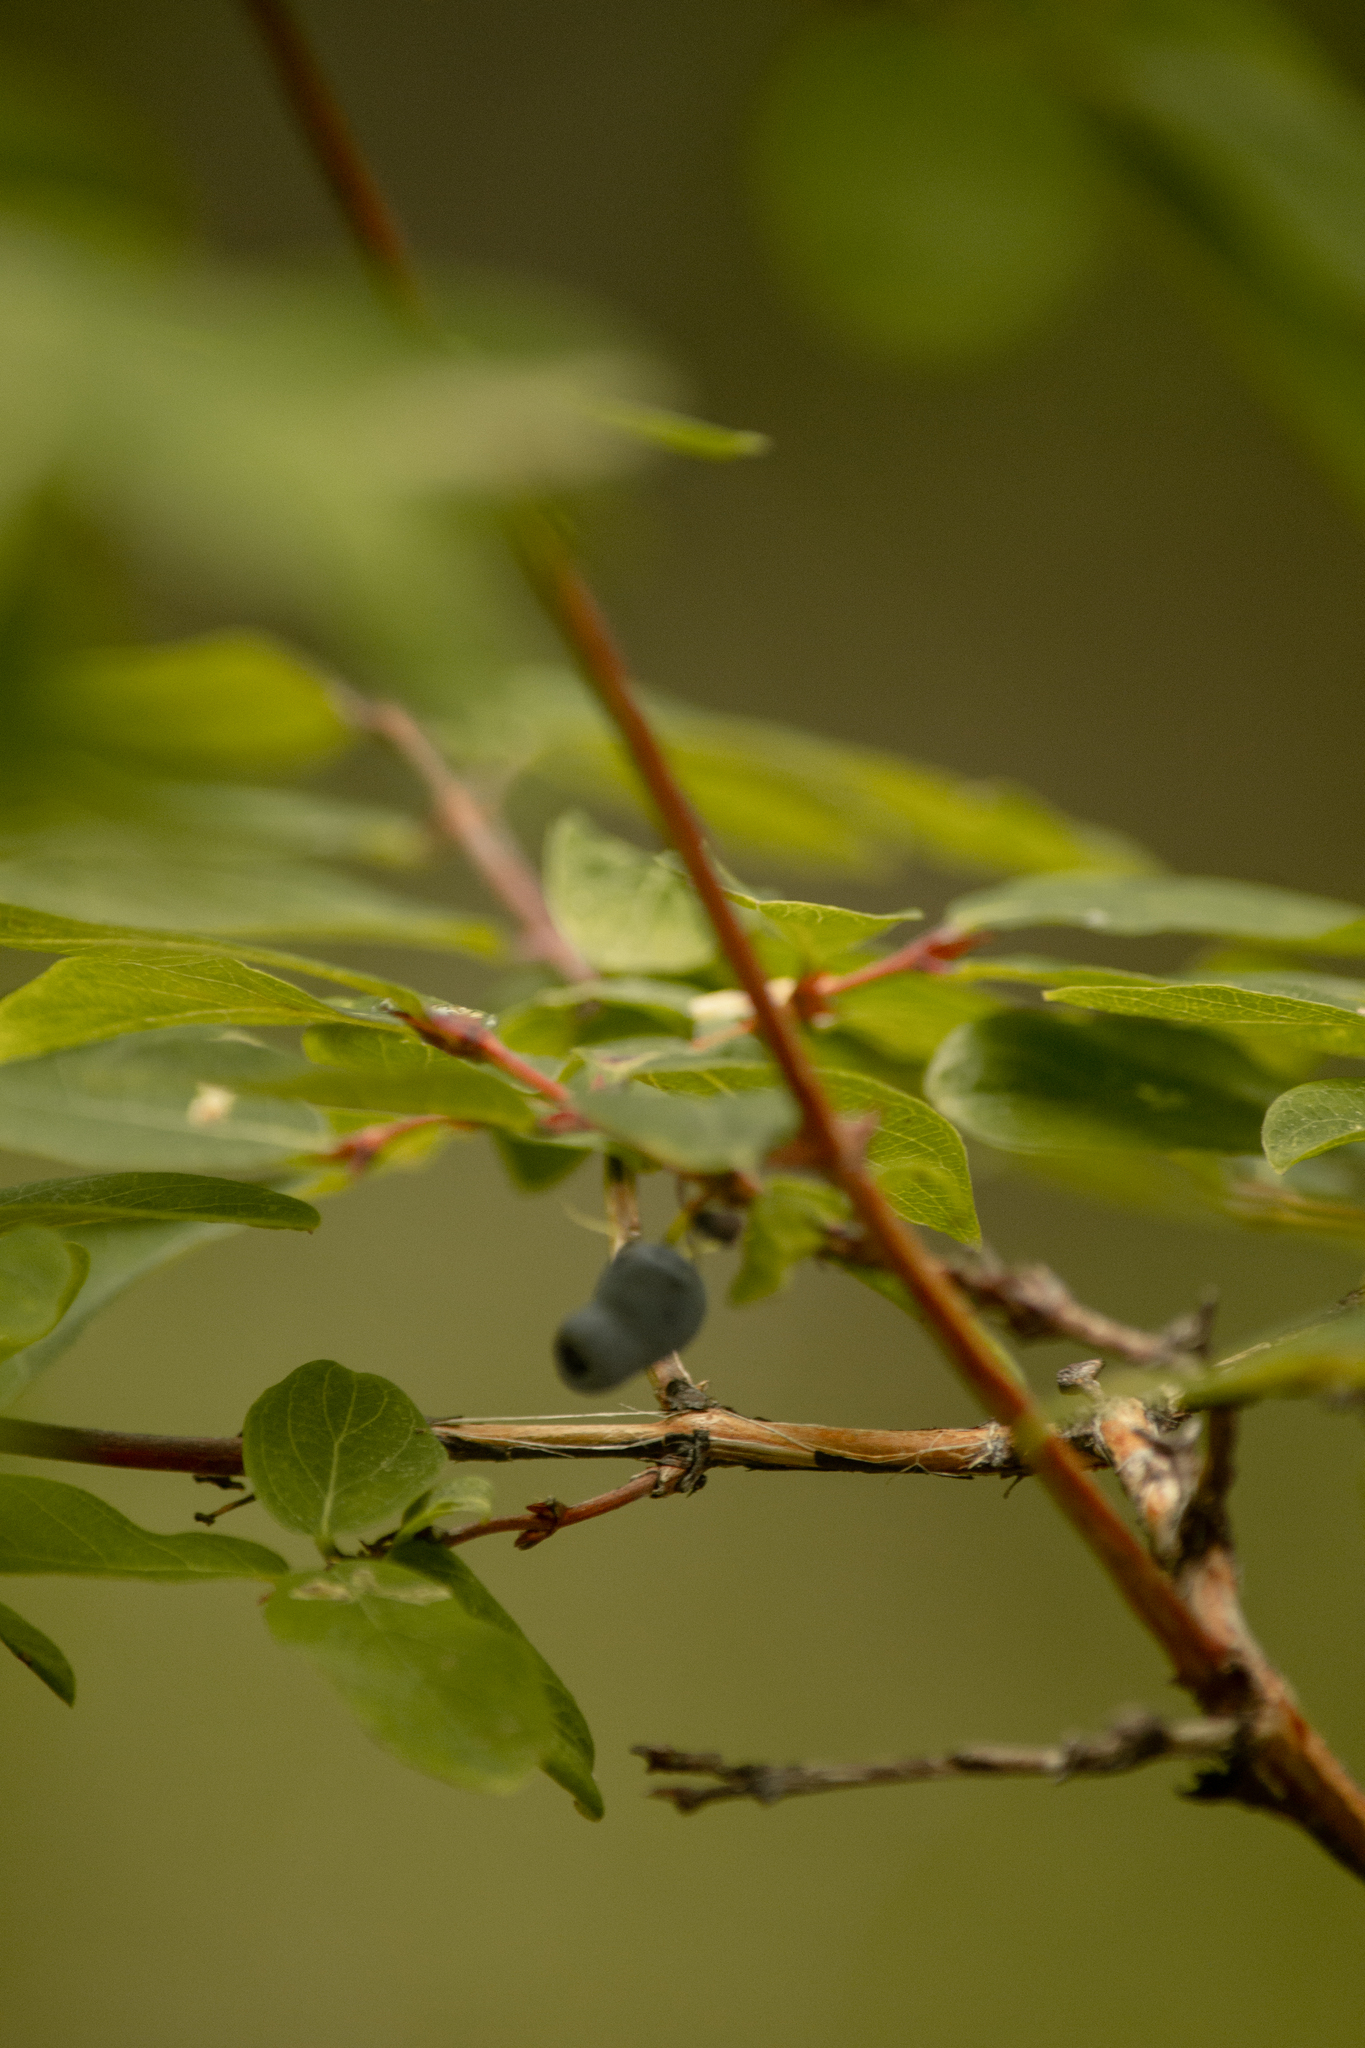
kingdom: Plantae
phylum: Tracheophyta
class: Magnoliopsida
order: Dipsacales
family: Caprifoliaceae
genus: Lonicera
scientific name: Lonicera caerulea
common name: Blue honeysuckle
